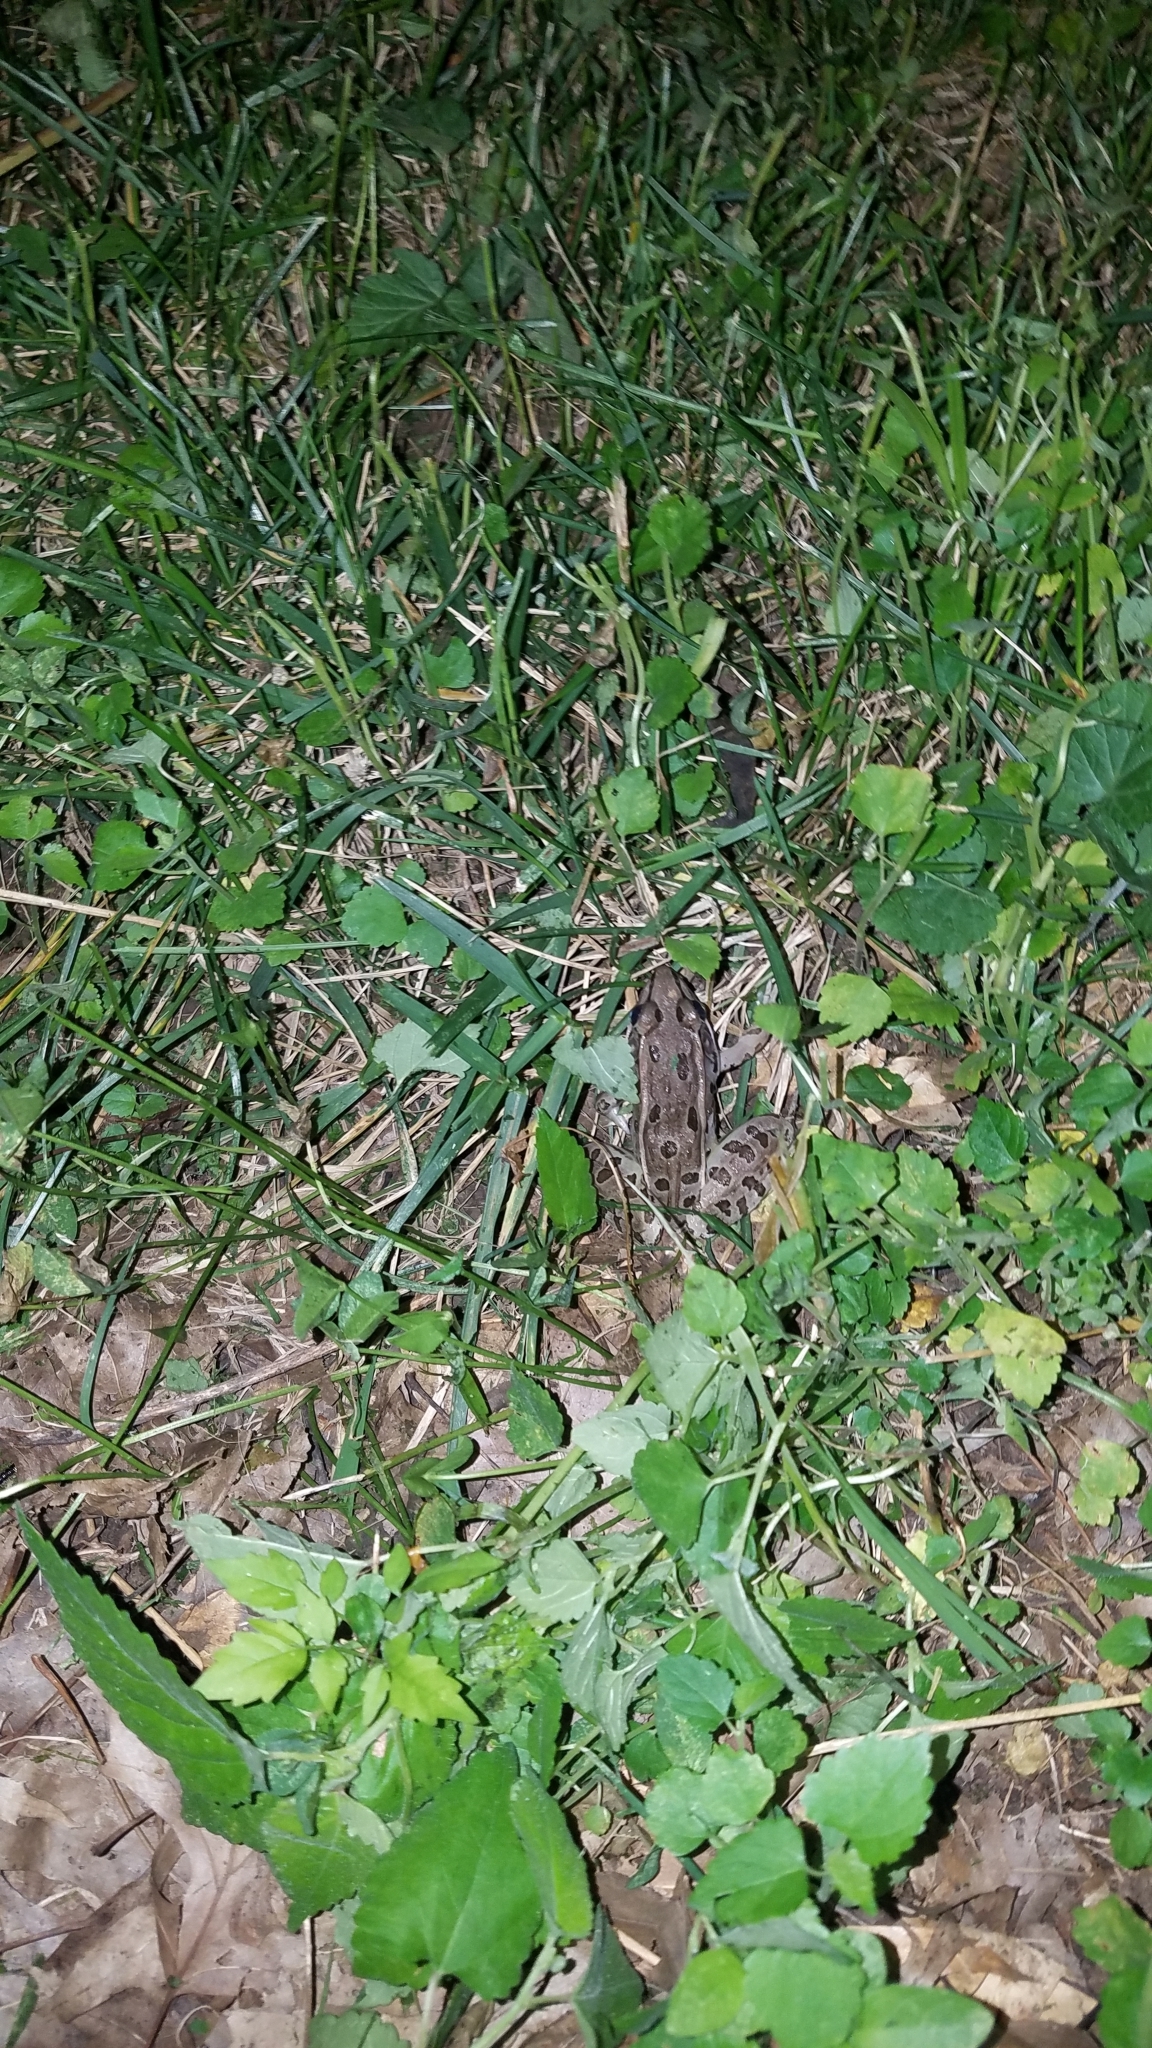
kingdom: Animalia
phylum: Chordata
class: Amphibia
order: Anura
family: Ranidae
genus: Lithobates
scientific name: Lithobates sphenocephalus
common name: Southern leopard frog
